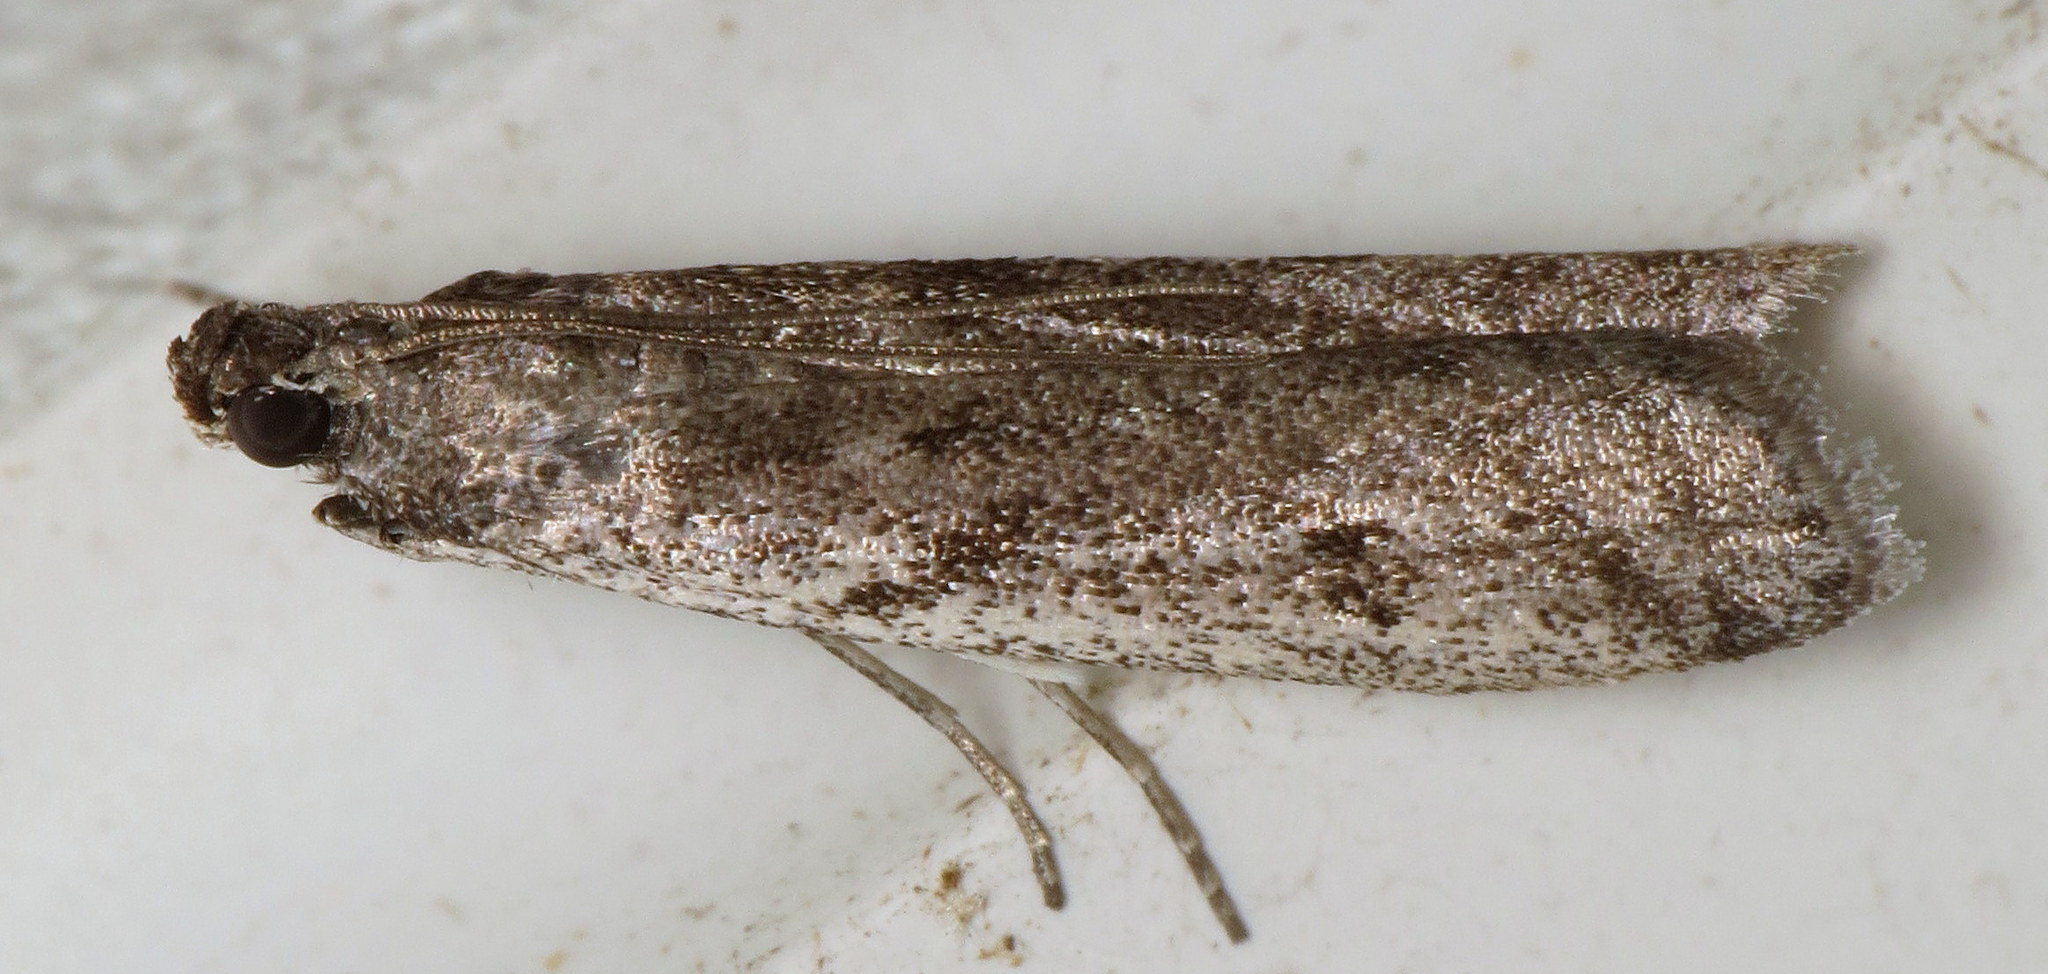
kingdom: Animalia
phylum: Arthropoda
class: Insecta
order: Lepidoptera
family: Pyralidae
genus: Phycitodes
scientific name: Phycitodes mucidellus
